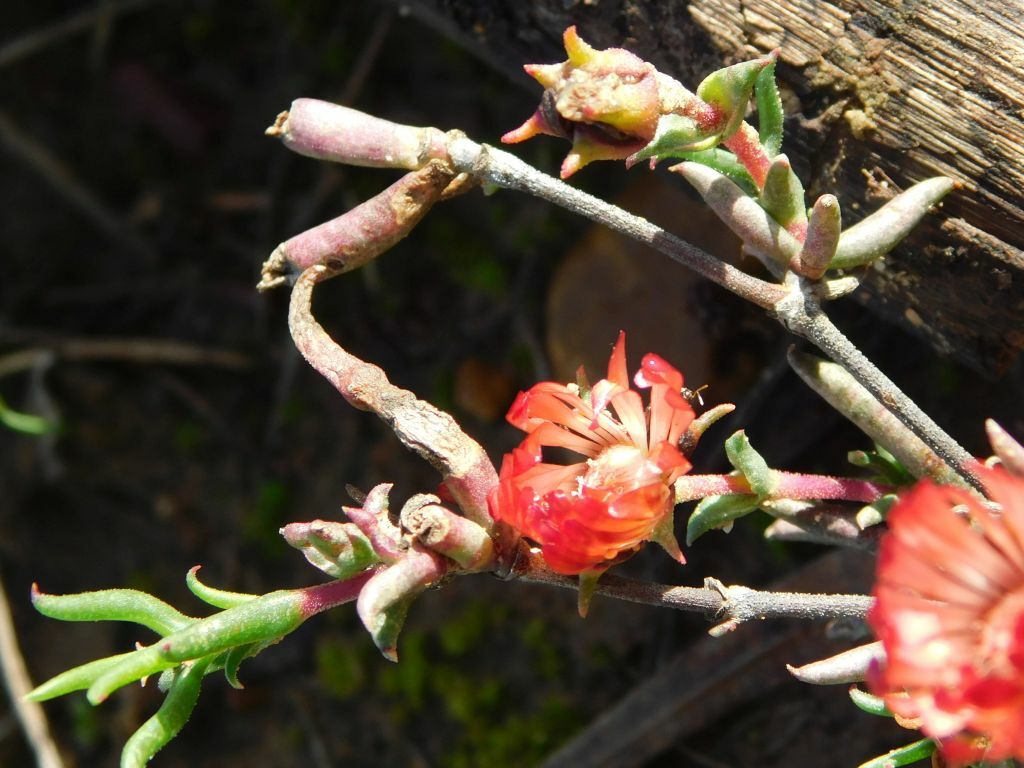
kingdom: Plantae
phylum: Tracheophyta
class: Magnoliopsida
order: Caryophyllales
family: Aizoaceae
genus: Lampranthus
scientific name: Lampranthus spiniformis
